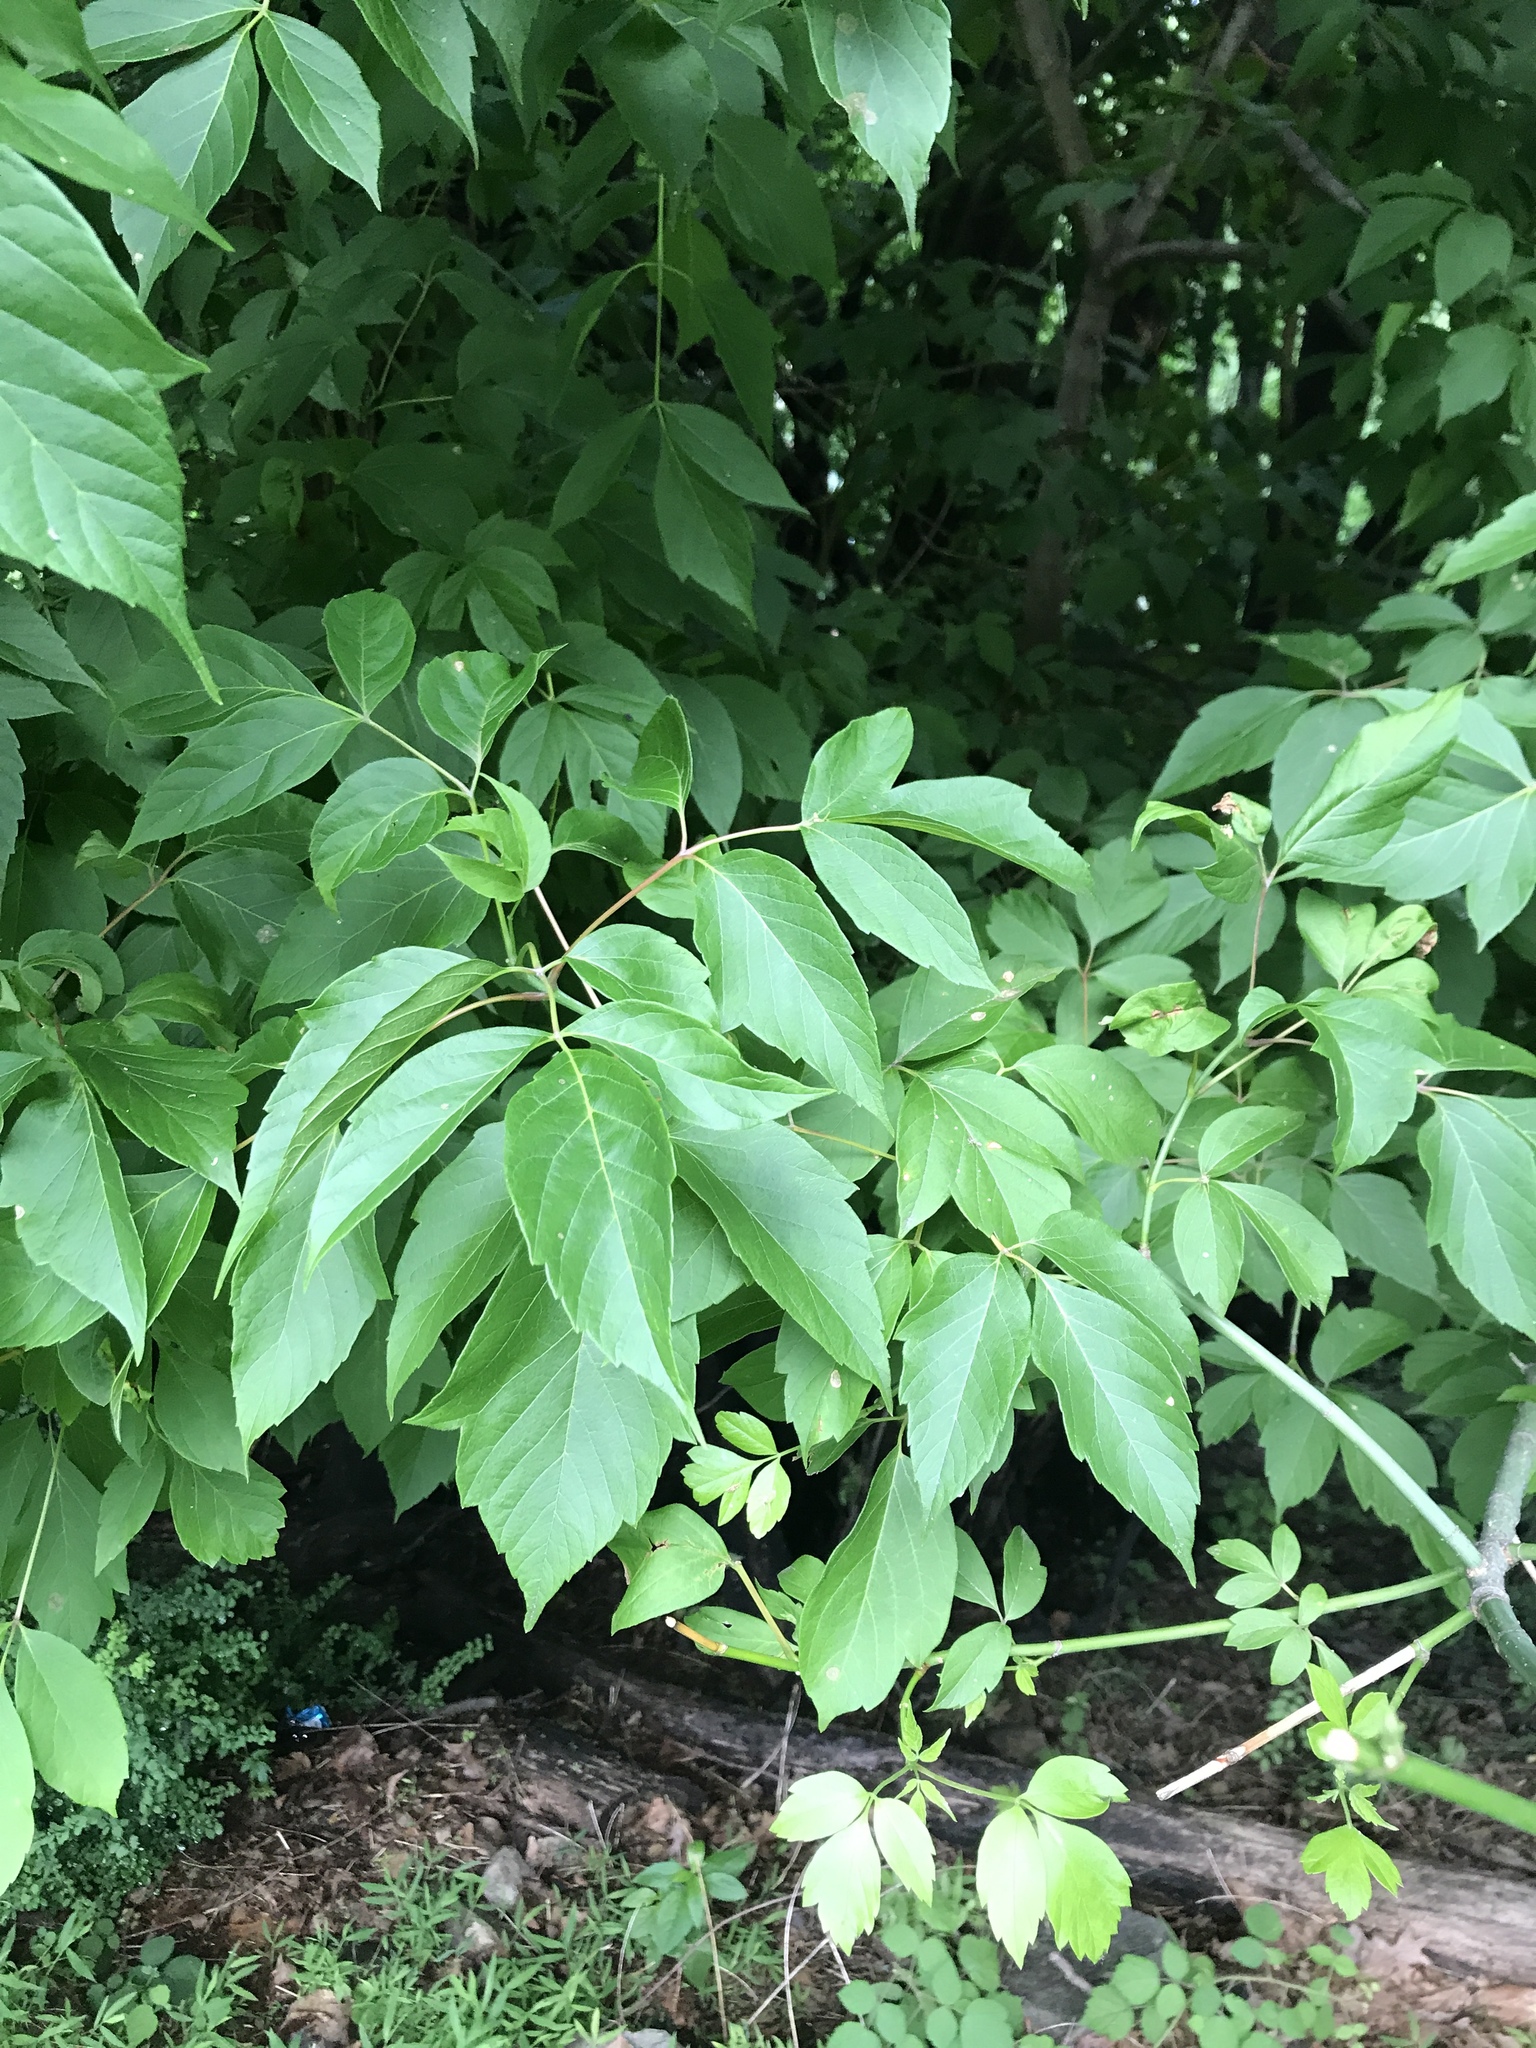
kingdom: Plantae
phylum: Tracheophyta
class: Magnoliopsida
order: Sapindales
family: Sapindaceae
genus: Acer
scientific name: Acer negundo
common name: Ashleaf maple
